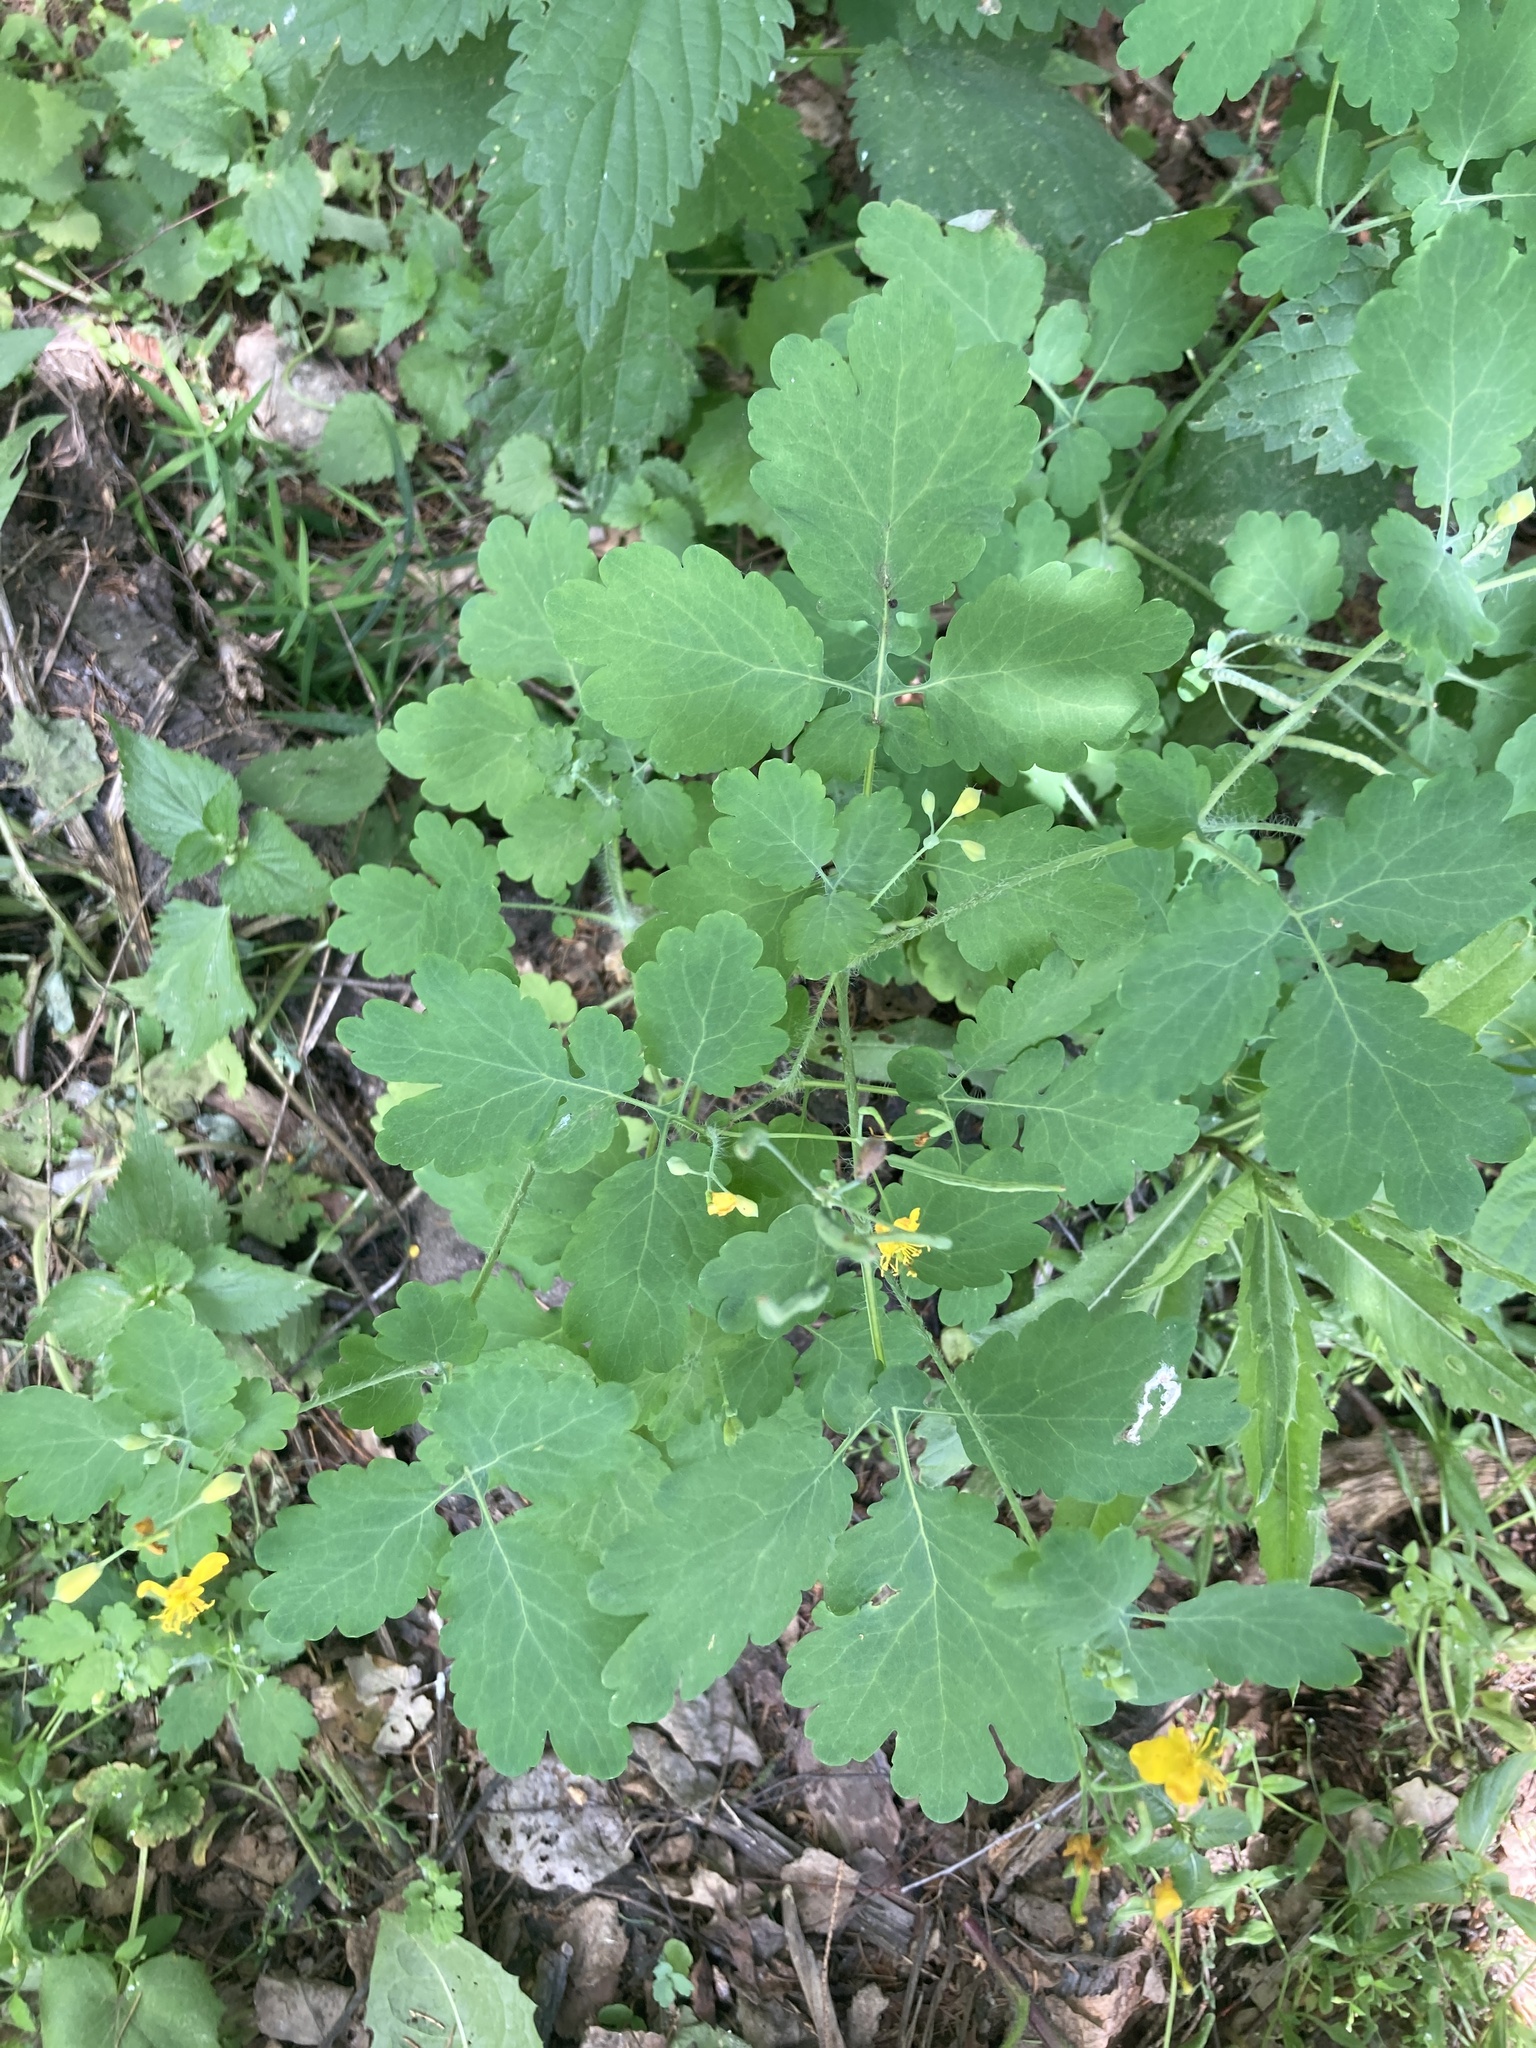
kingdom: Plantae
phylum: Tracheophyta
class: Magnoliopsida
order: Ranunculales
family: Papaveraceae
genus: Chelidonium
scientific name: Chelidonium majus
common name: Greater celandine
